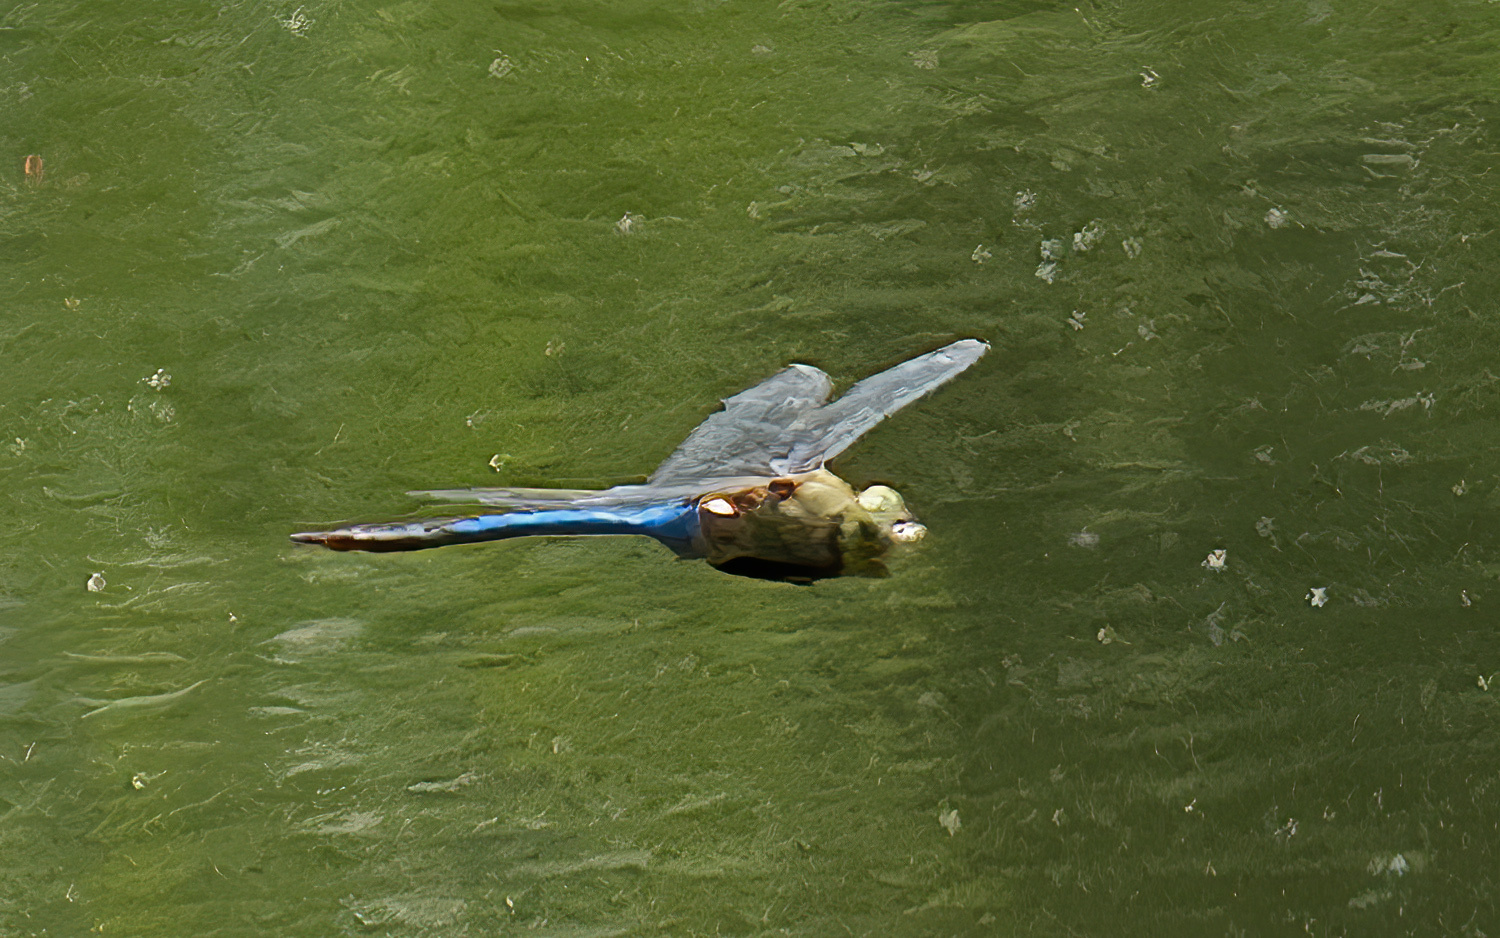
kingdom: Animalia
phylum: Arthropoda
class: Insecta
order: Odonata
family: Aeshnidae
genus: Anax
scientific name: Anax junius
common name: Common green darner
